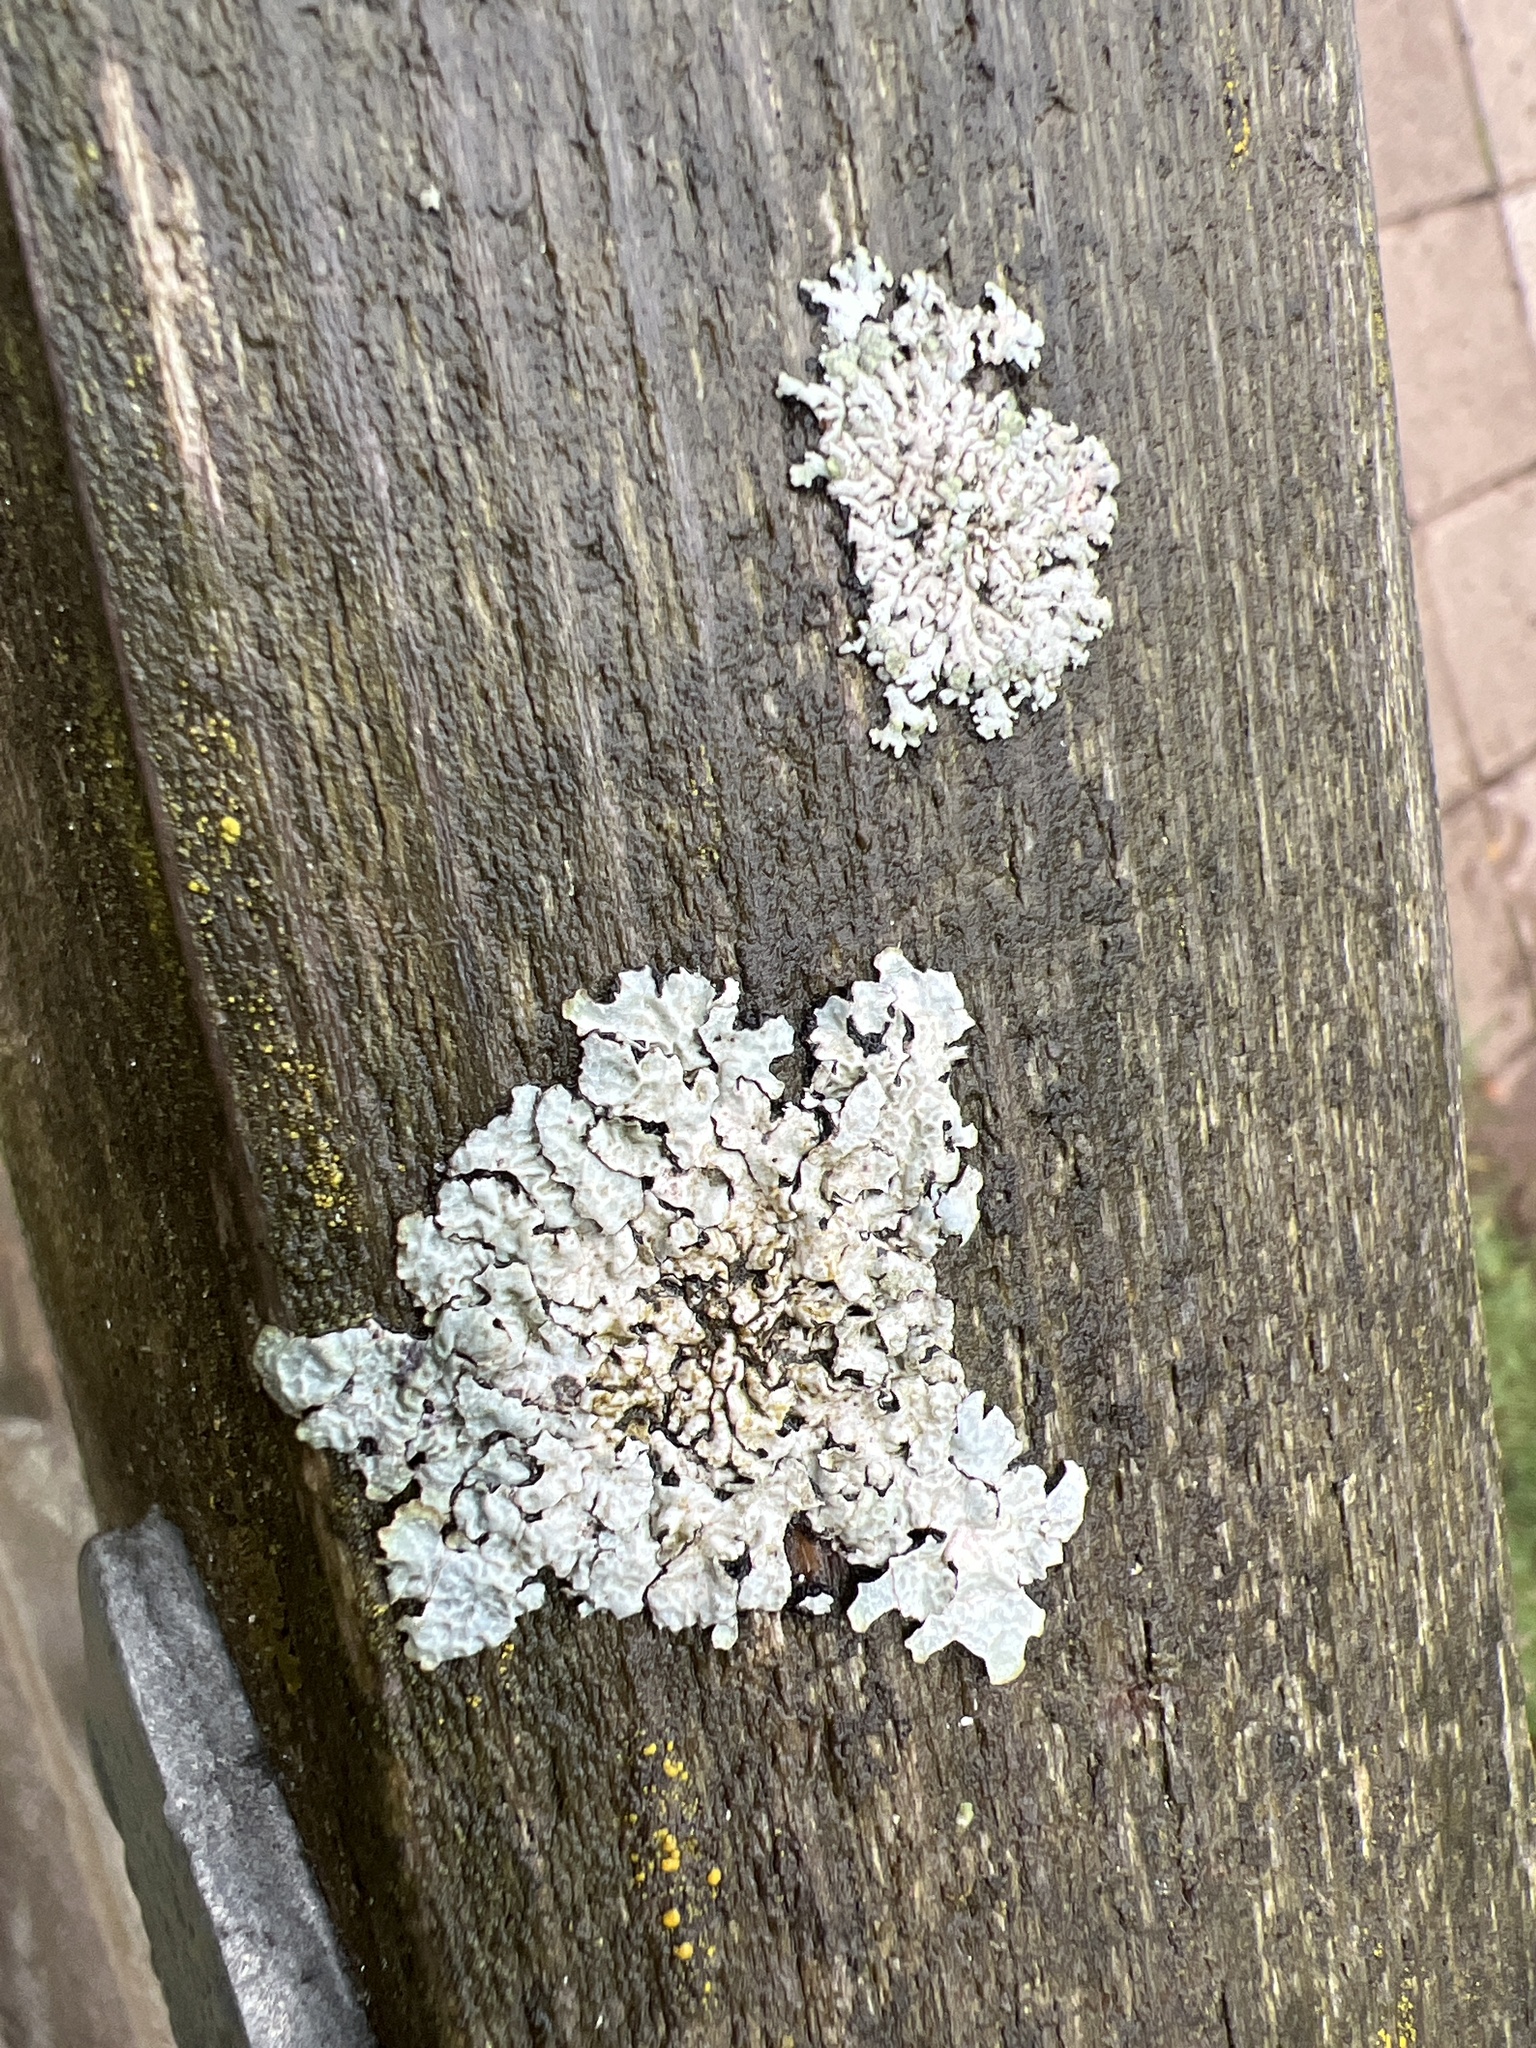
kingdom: Fungi
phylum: Ascomycota
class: Lecanoromycetes
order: Lecanorales
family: Parmeliaceae
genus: Parmelia
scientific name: Parmelia sulcata
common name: Netted shield lichen
